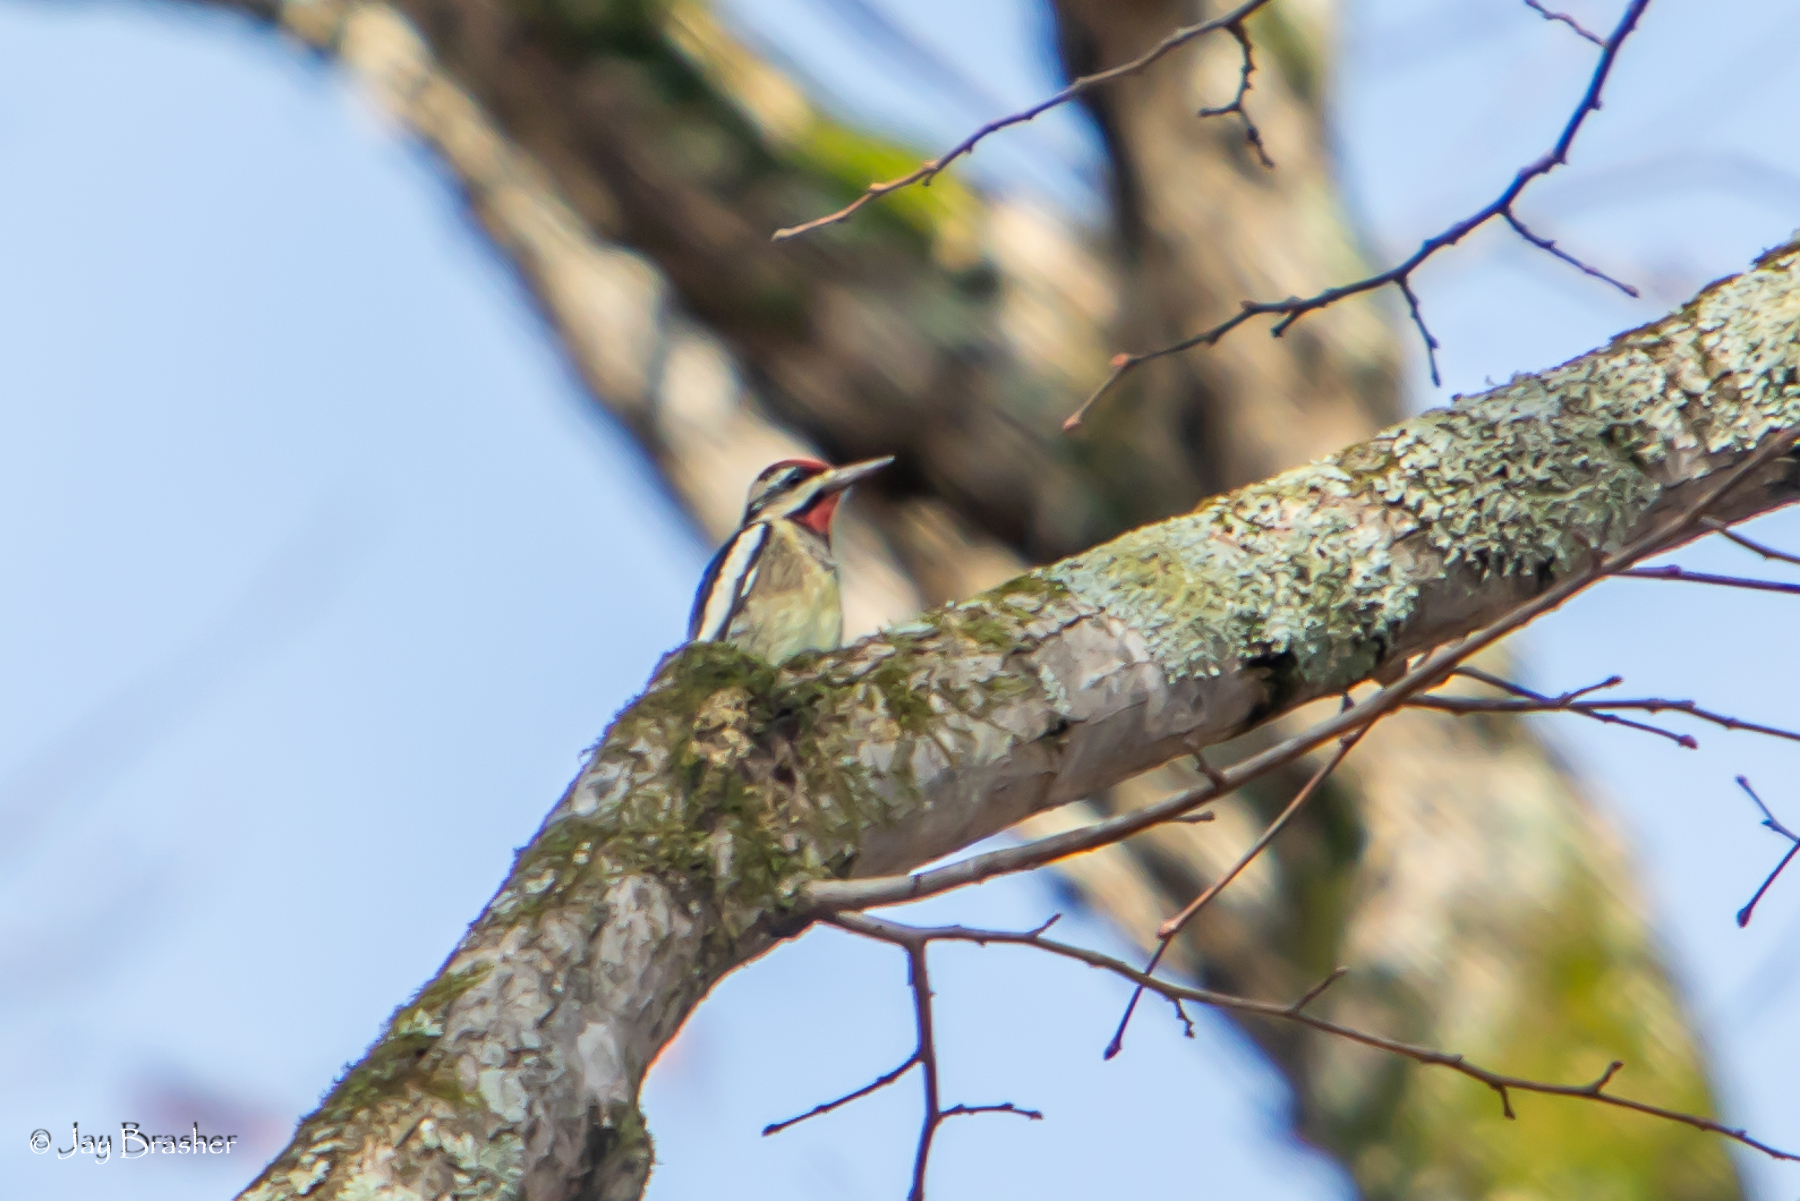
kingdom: Animalia
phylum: Chordata
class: Aves
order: Piciformes
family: Picidae
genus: Sphyrapicus
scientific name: Sphyrapicus varius
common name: Yellow-bellied sapsucker
